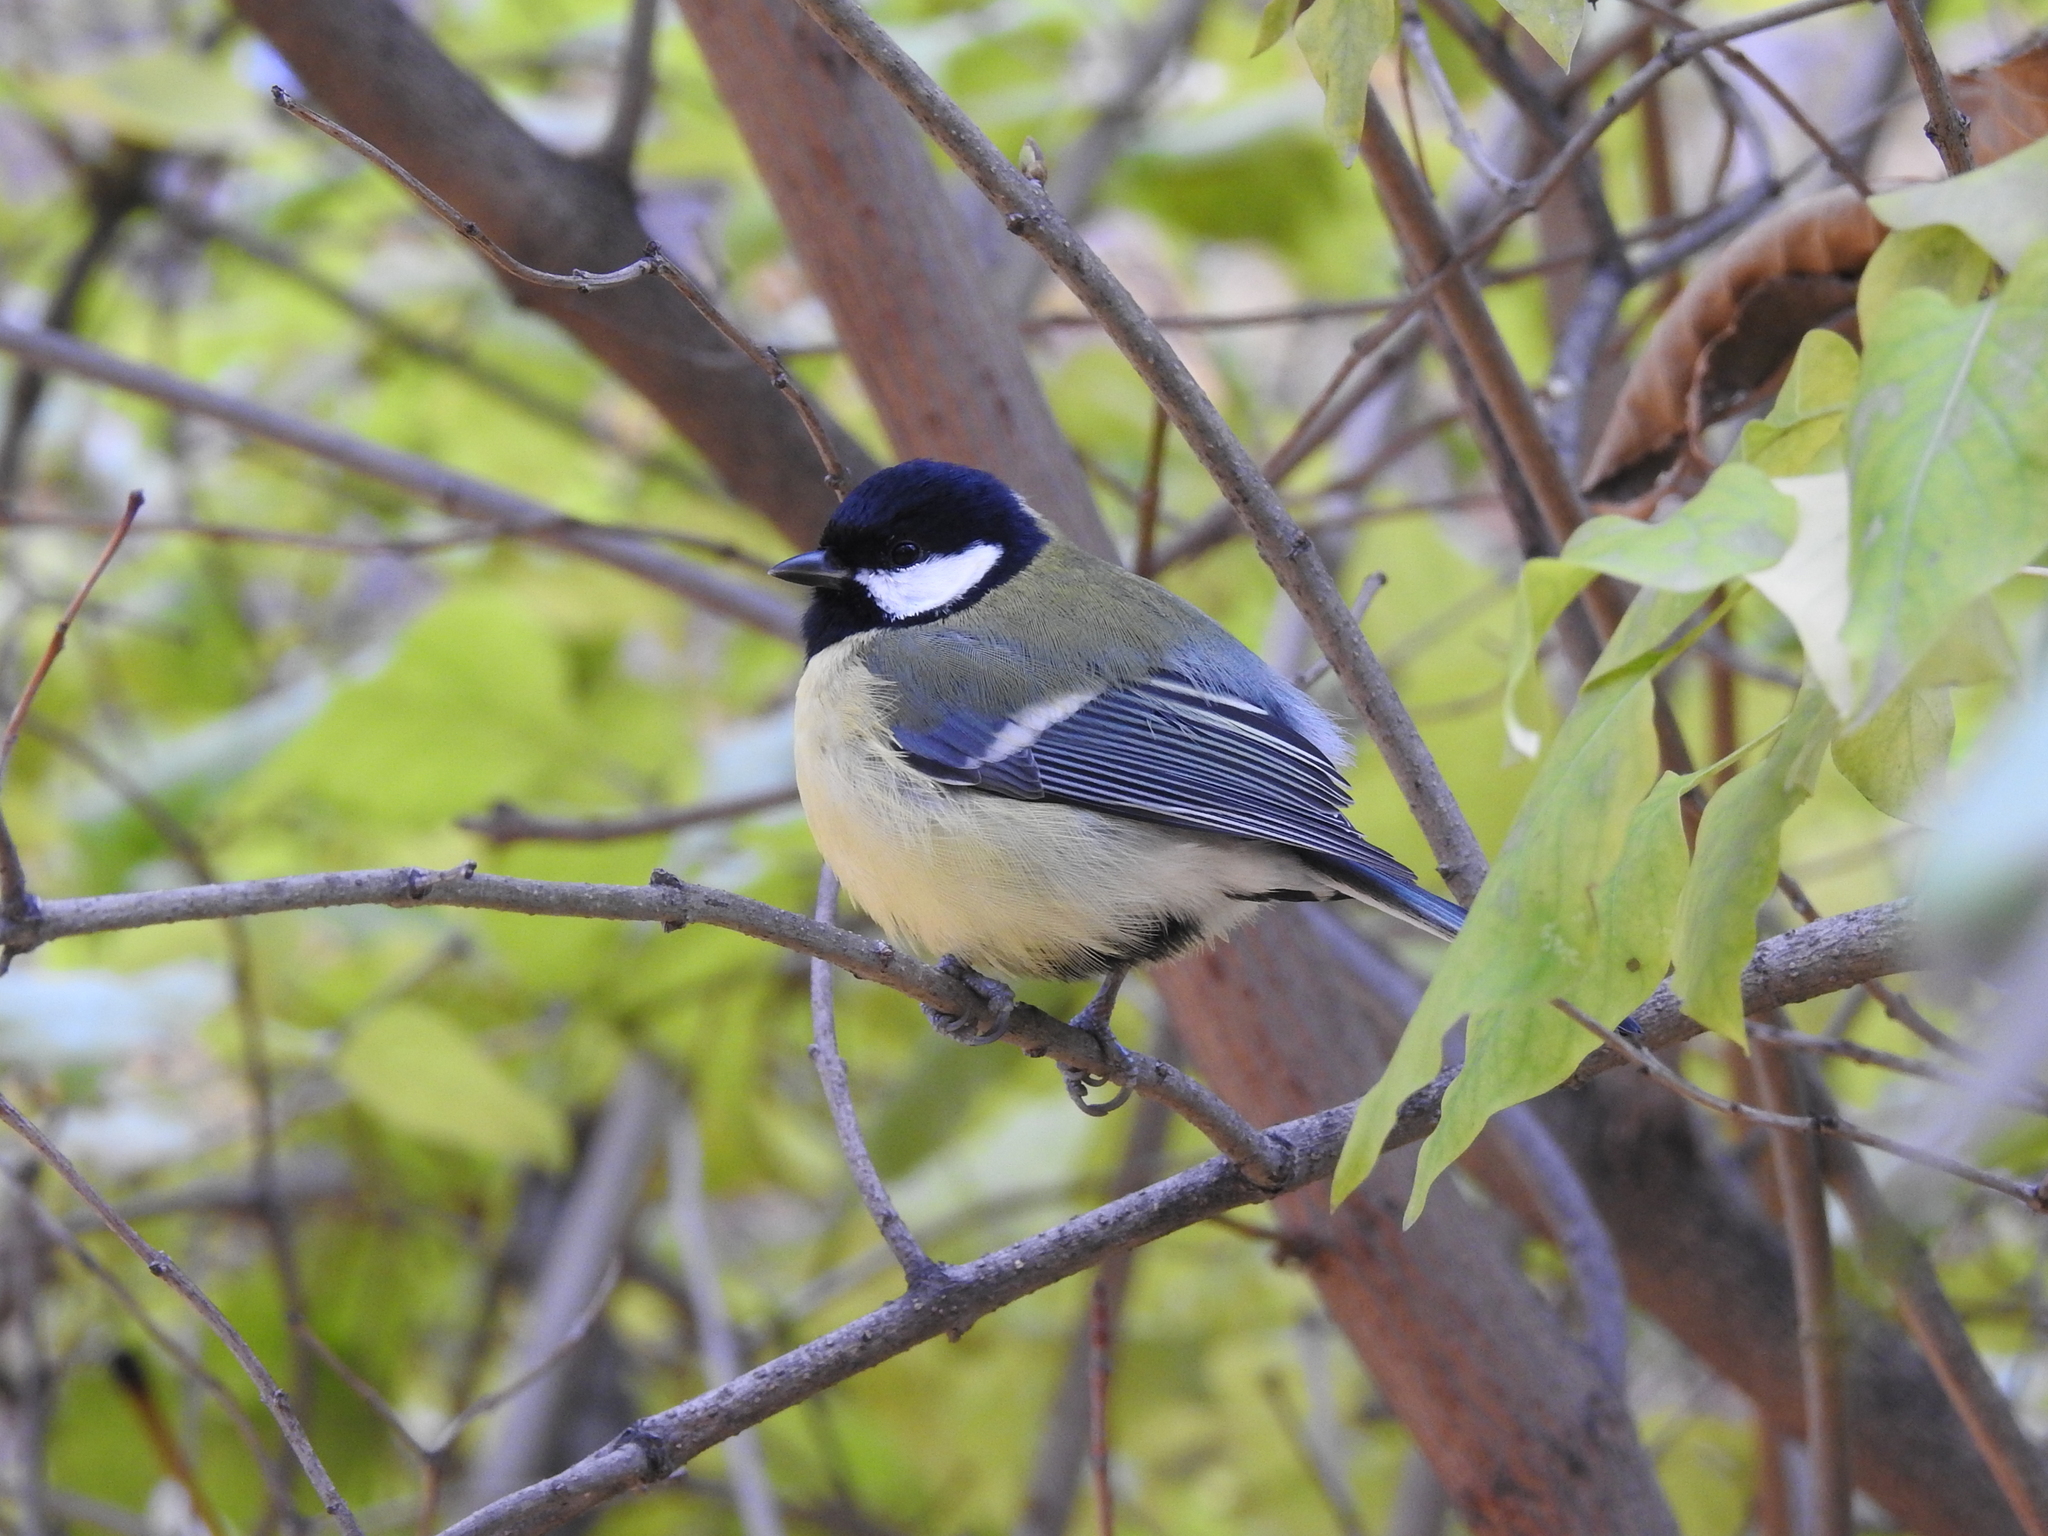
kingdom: Animalia
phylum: Chordata
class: Aves
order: Passeriformes
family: Paridae
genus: Parus
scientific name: Parus major
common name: Great tit
